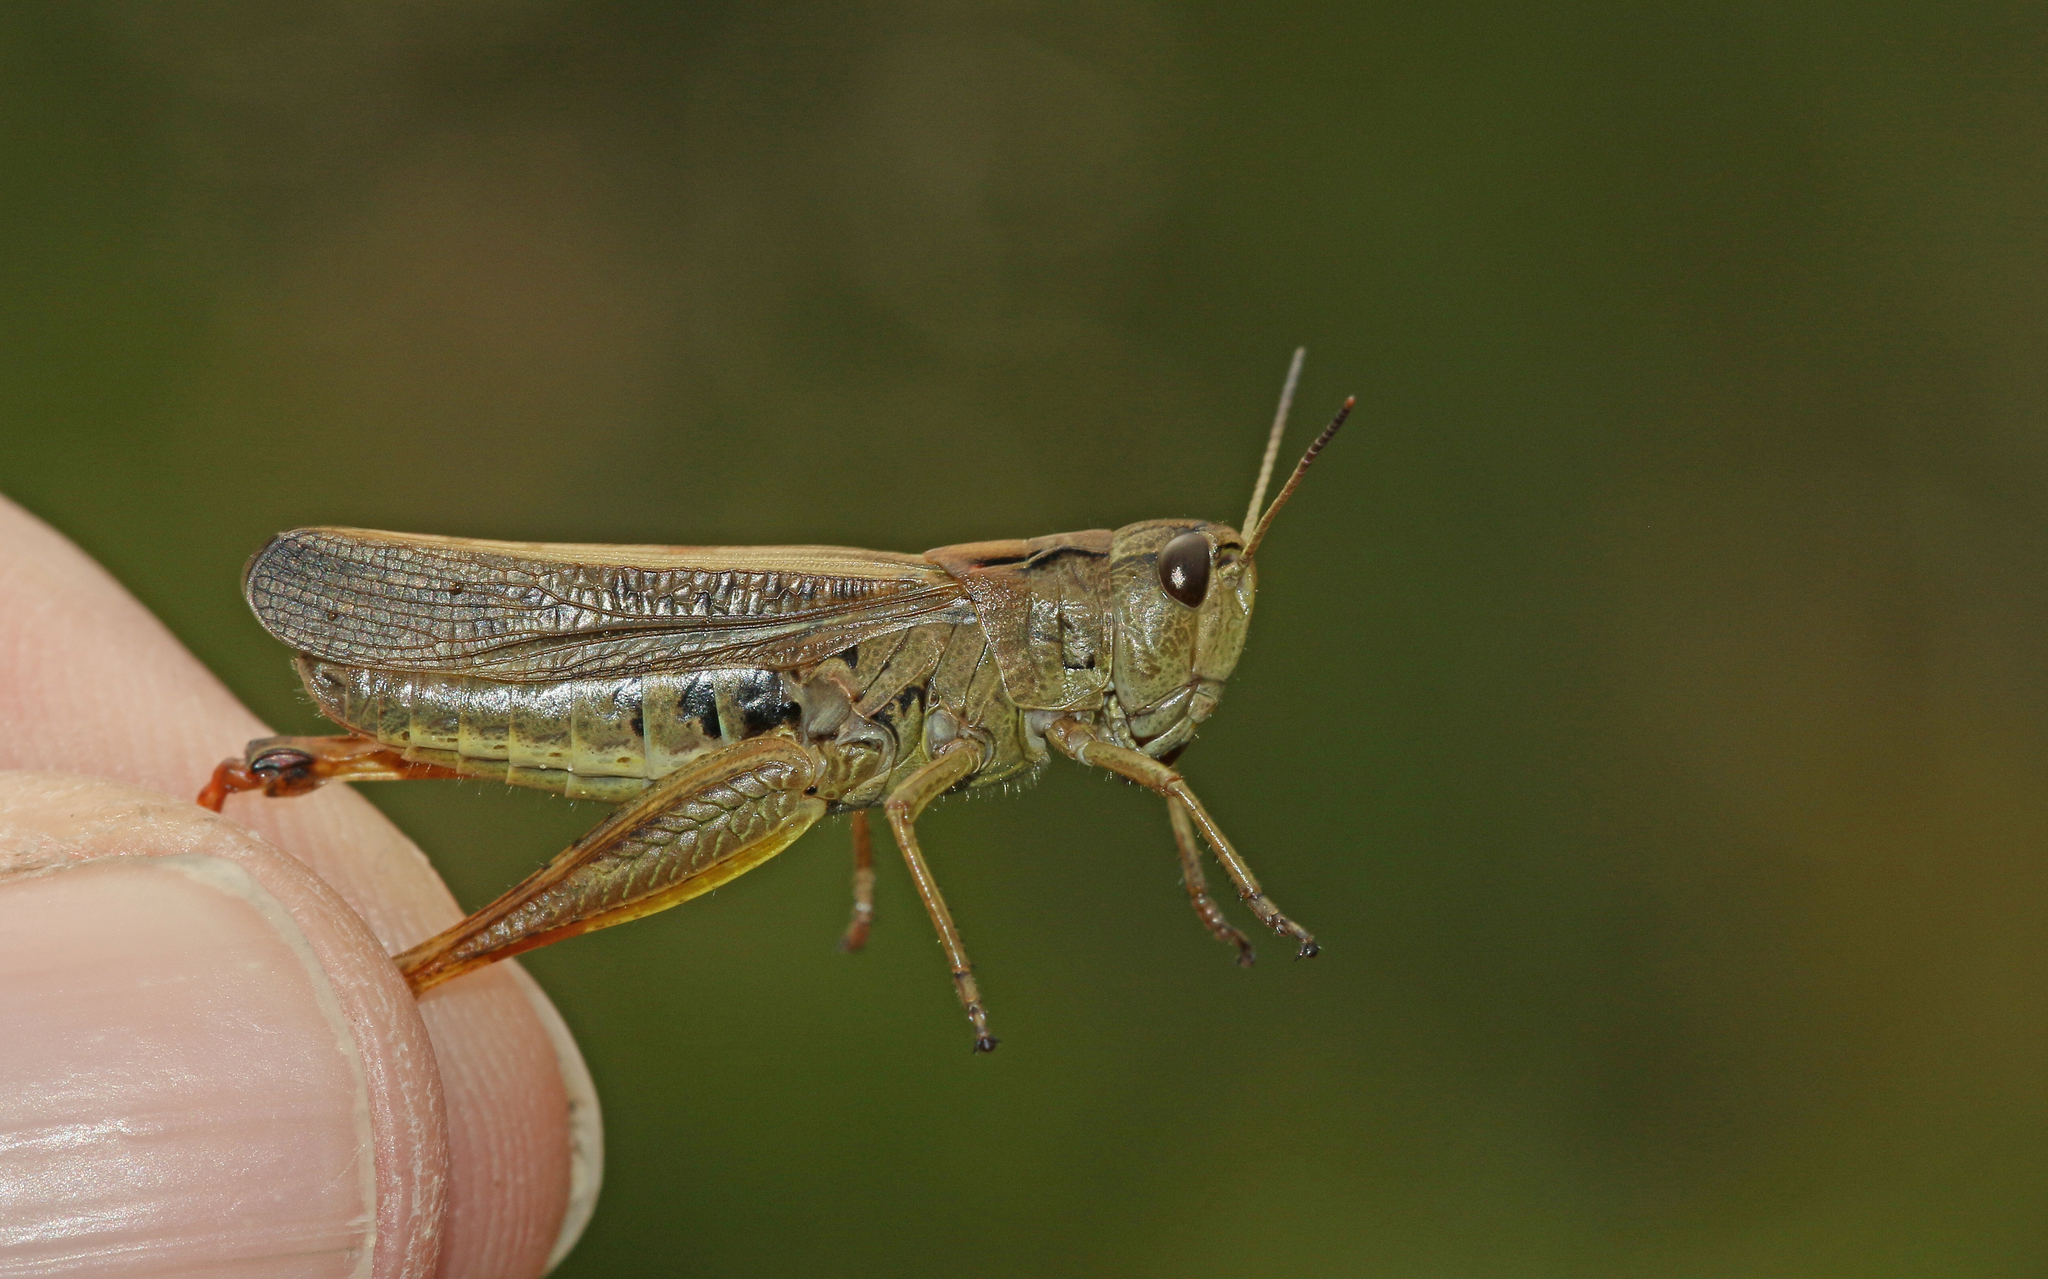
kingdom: Animalia
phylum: Arthropoda
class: Insecta
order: Orthoptera
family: Acrididae
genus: Stauroderus
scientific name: Stauroderus scalaris
